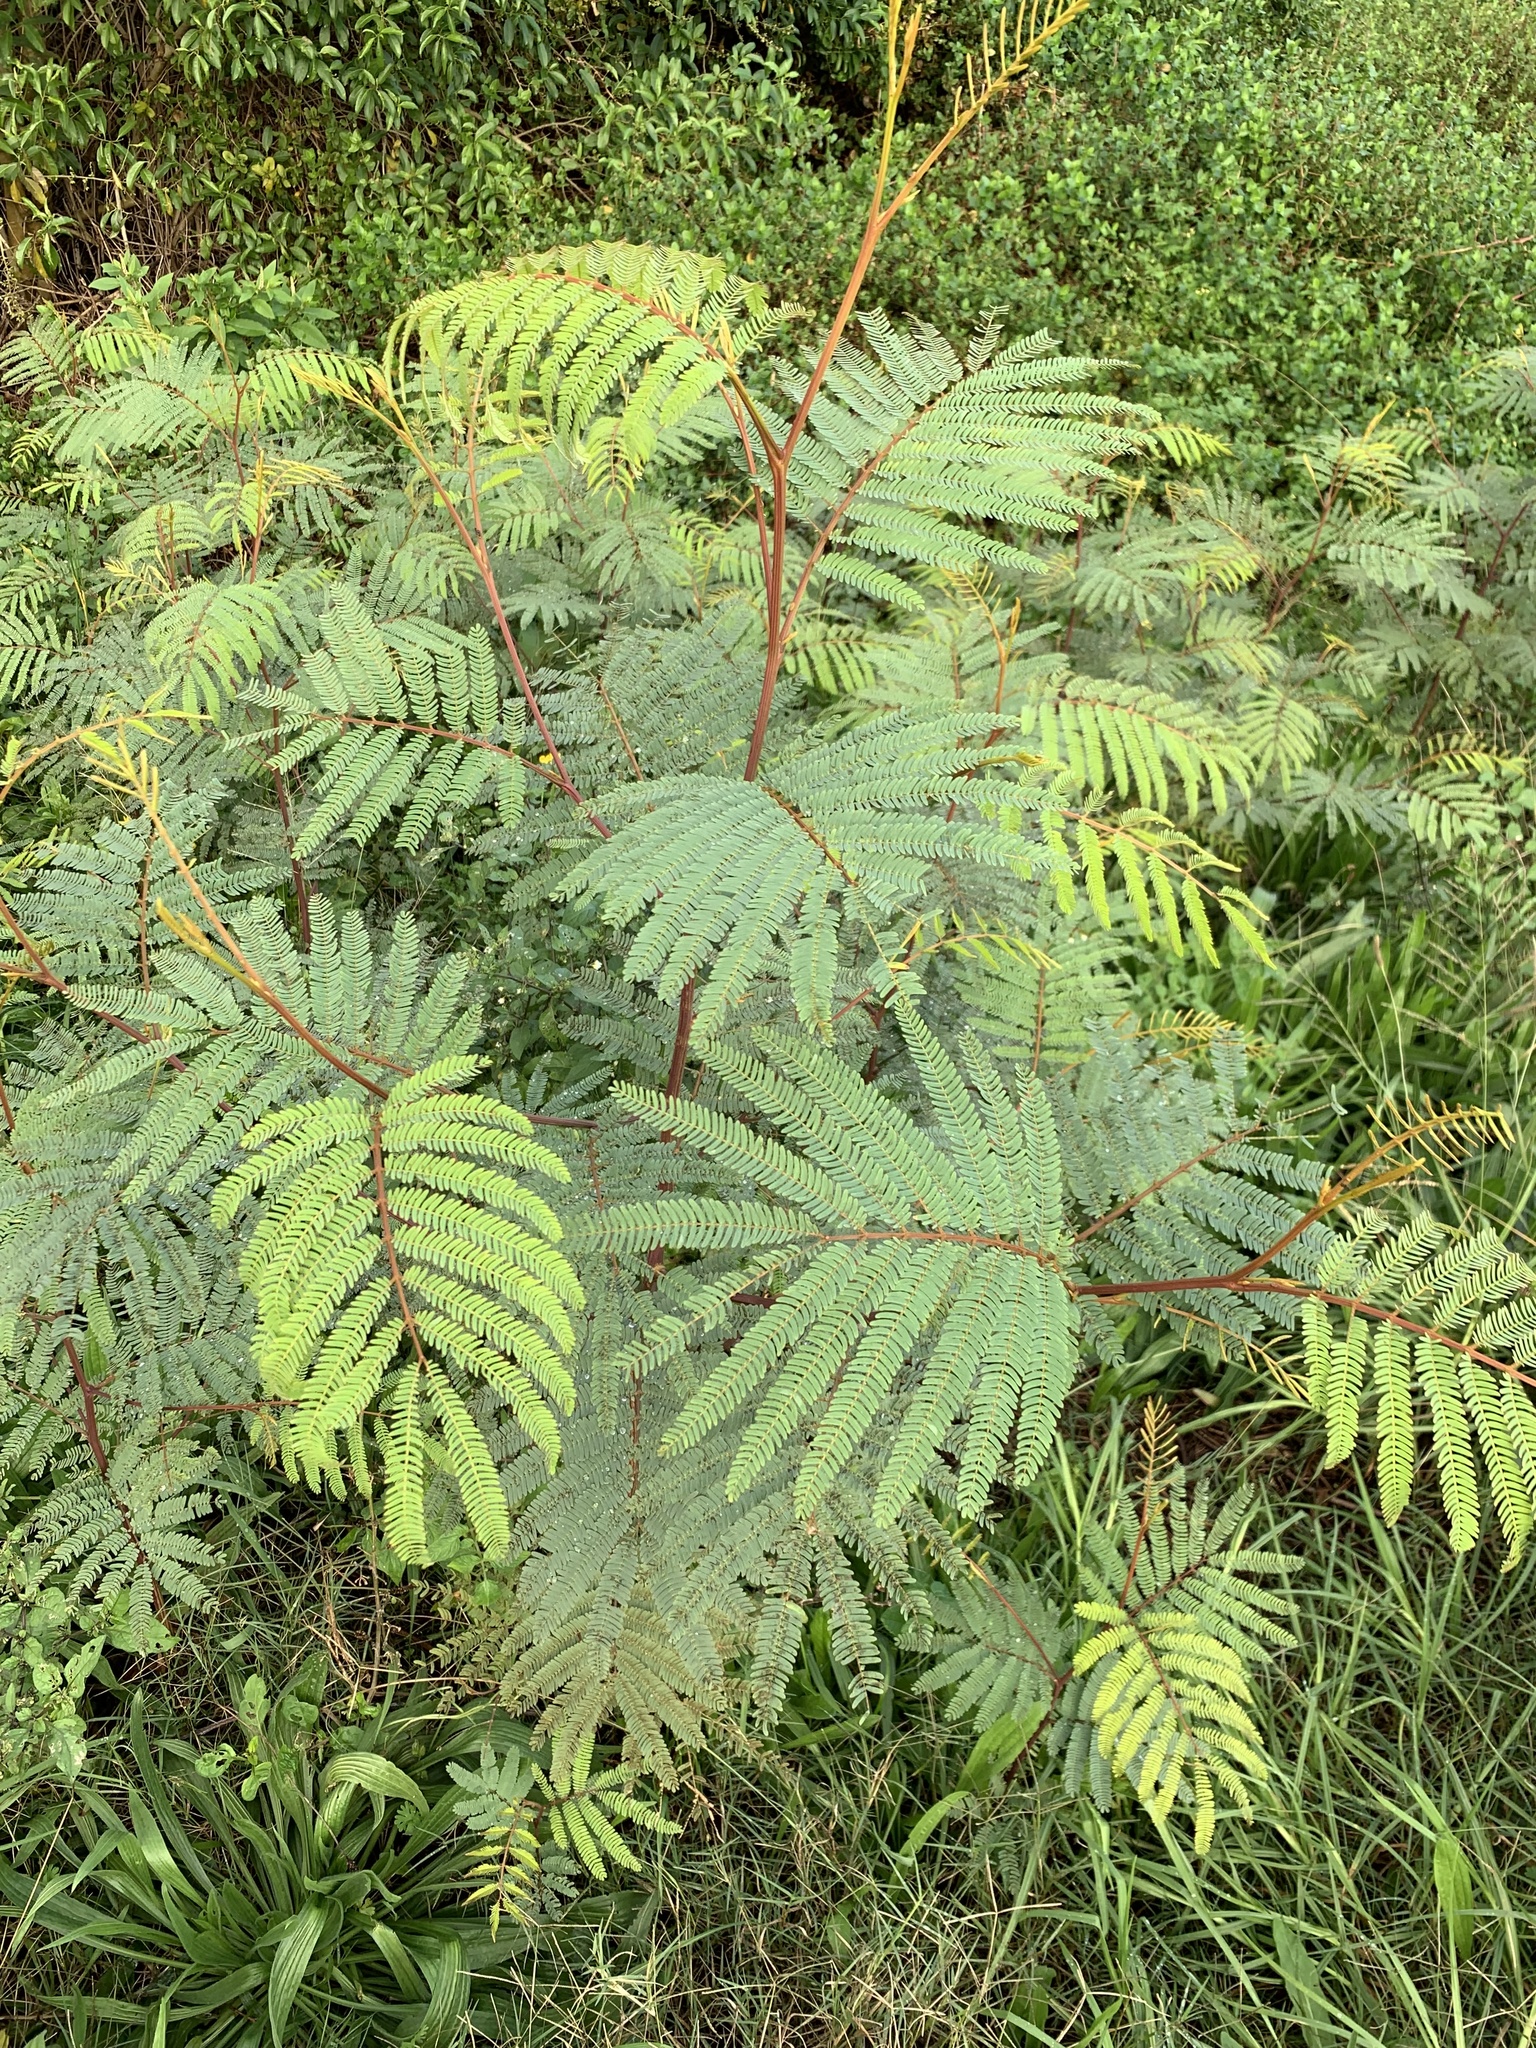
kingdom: Plantae
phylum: Tracheophyta
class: Magnoliopsida
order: Fabales
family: Fabaceae
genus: Paraserianthes
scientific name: Paraserianthes lophantha
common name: Plume albizia
